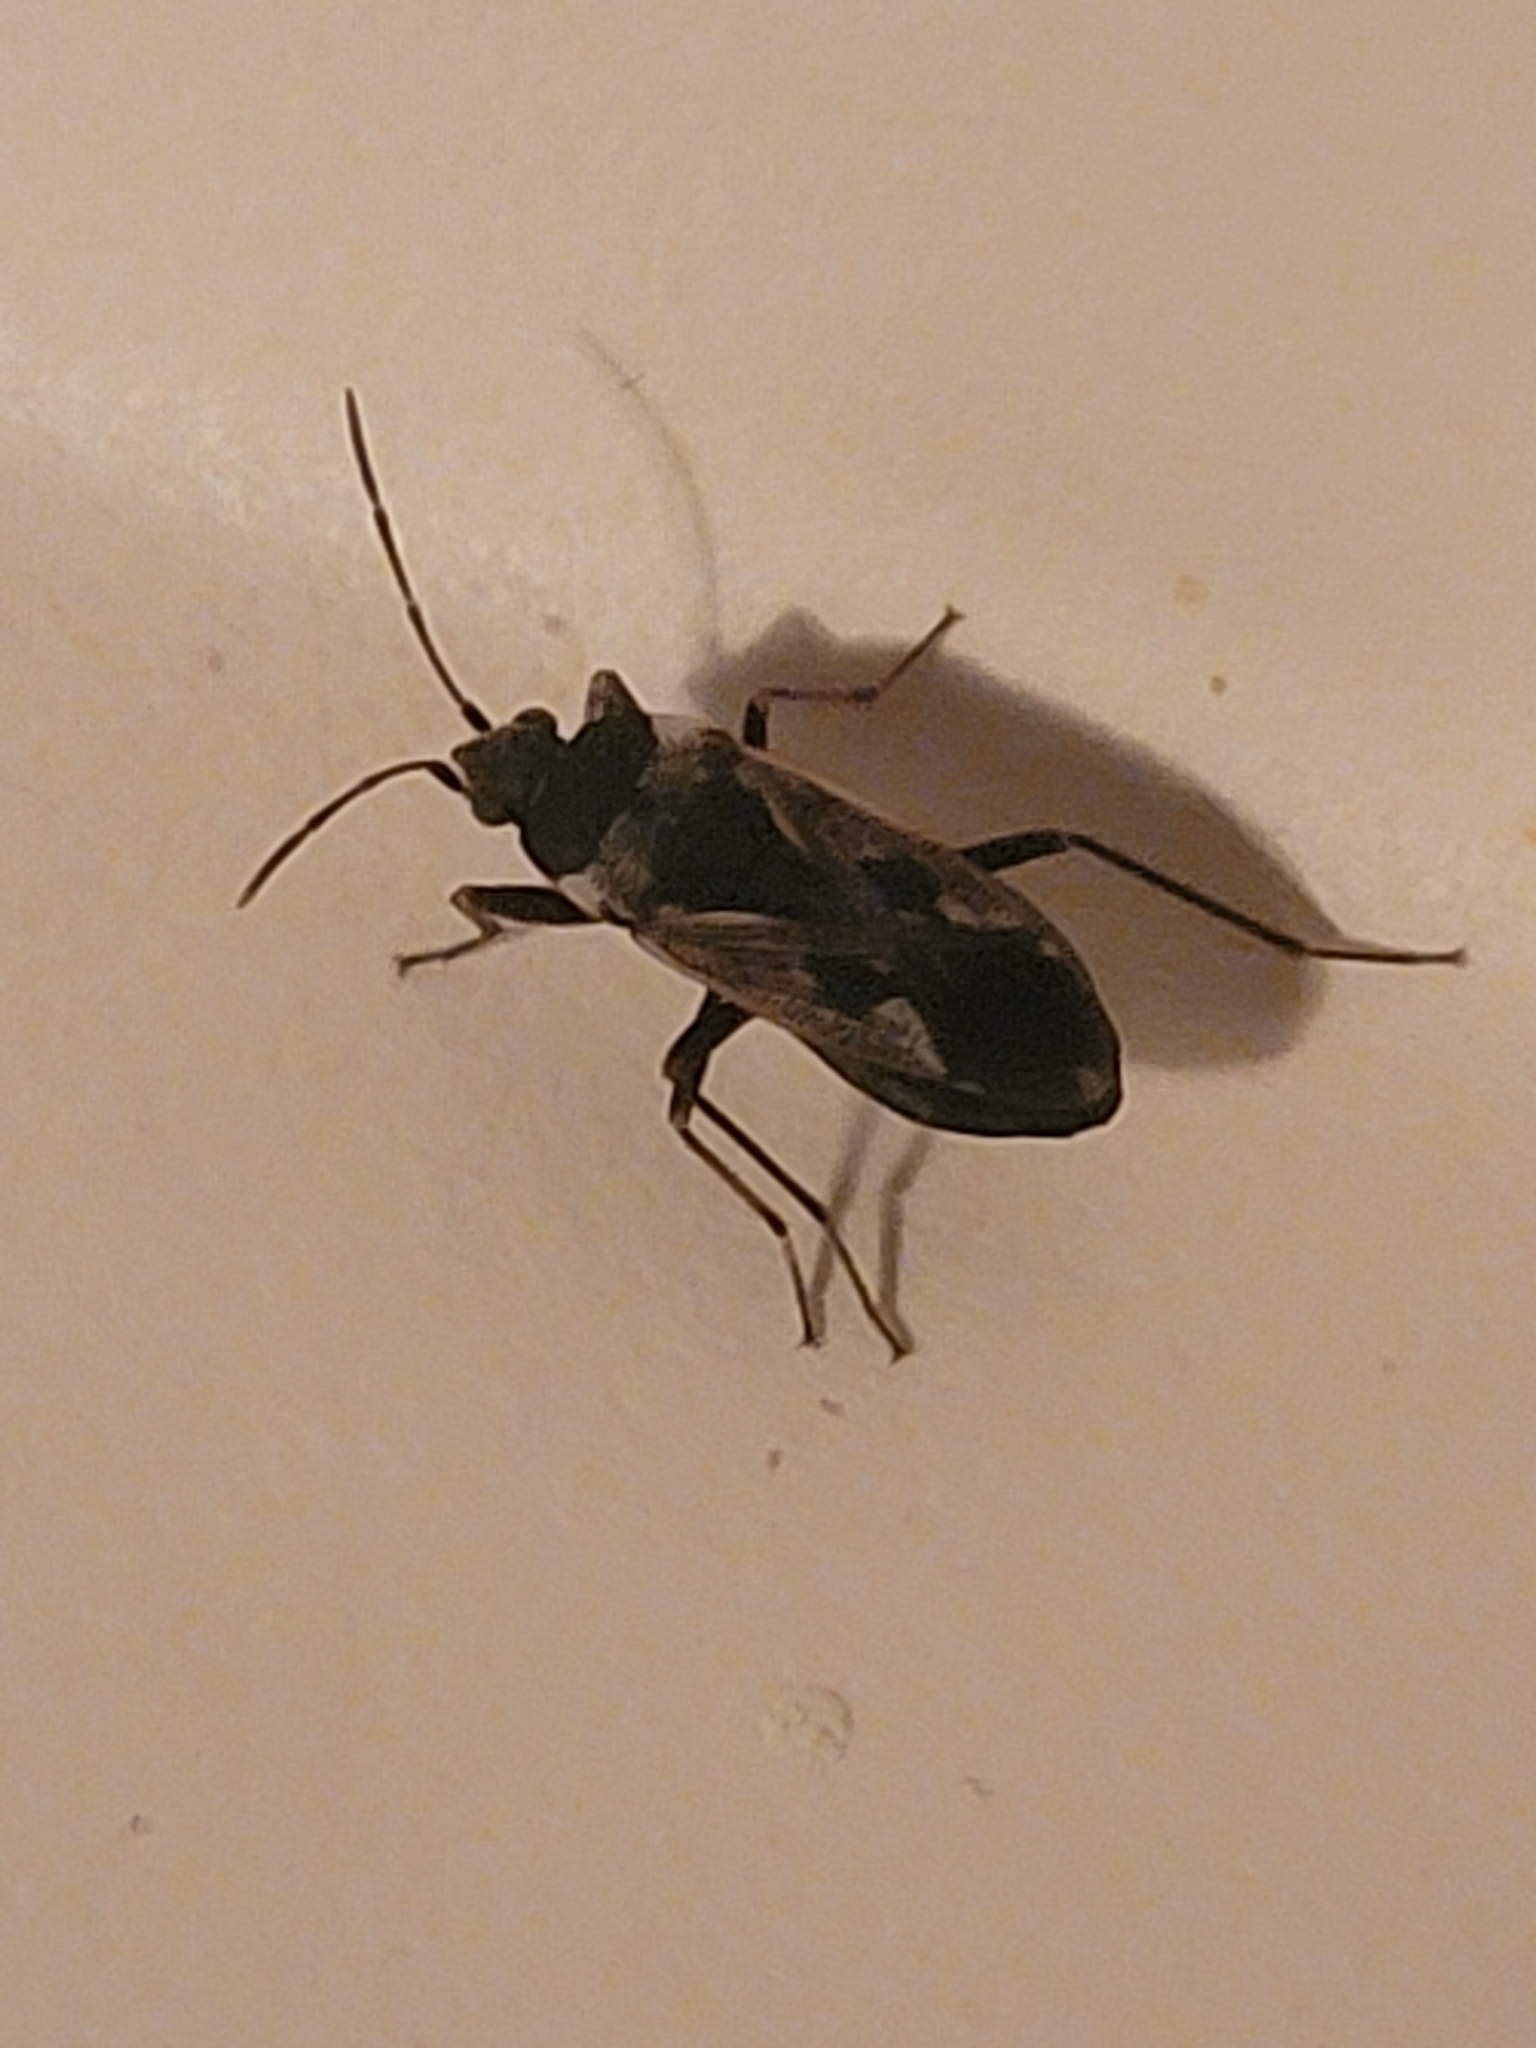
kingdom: Animalia
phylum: Arthropoda
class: Insecta
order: Hemiptera
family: Rhyparochromidae
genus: Rhyparochromus
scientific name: Rhyparochromus vulgaris
